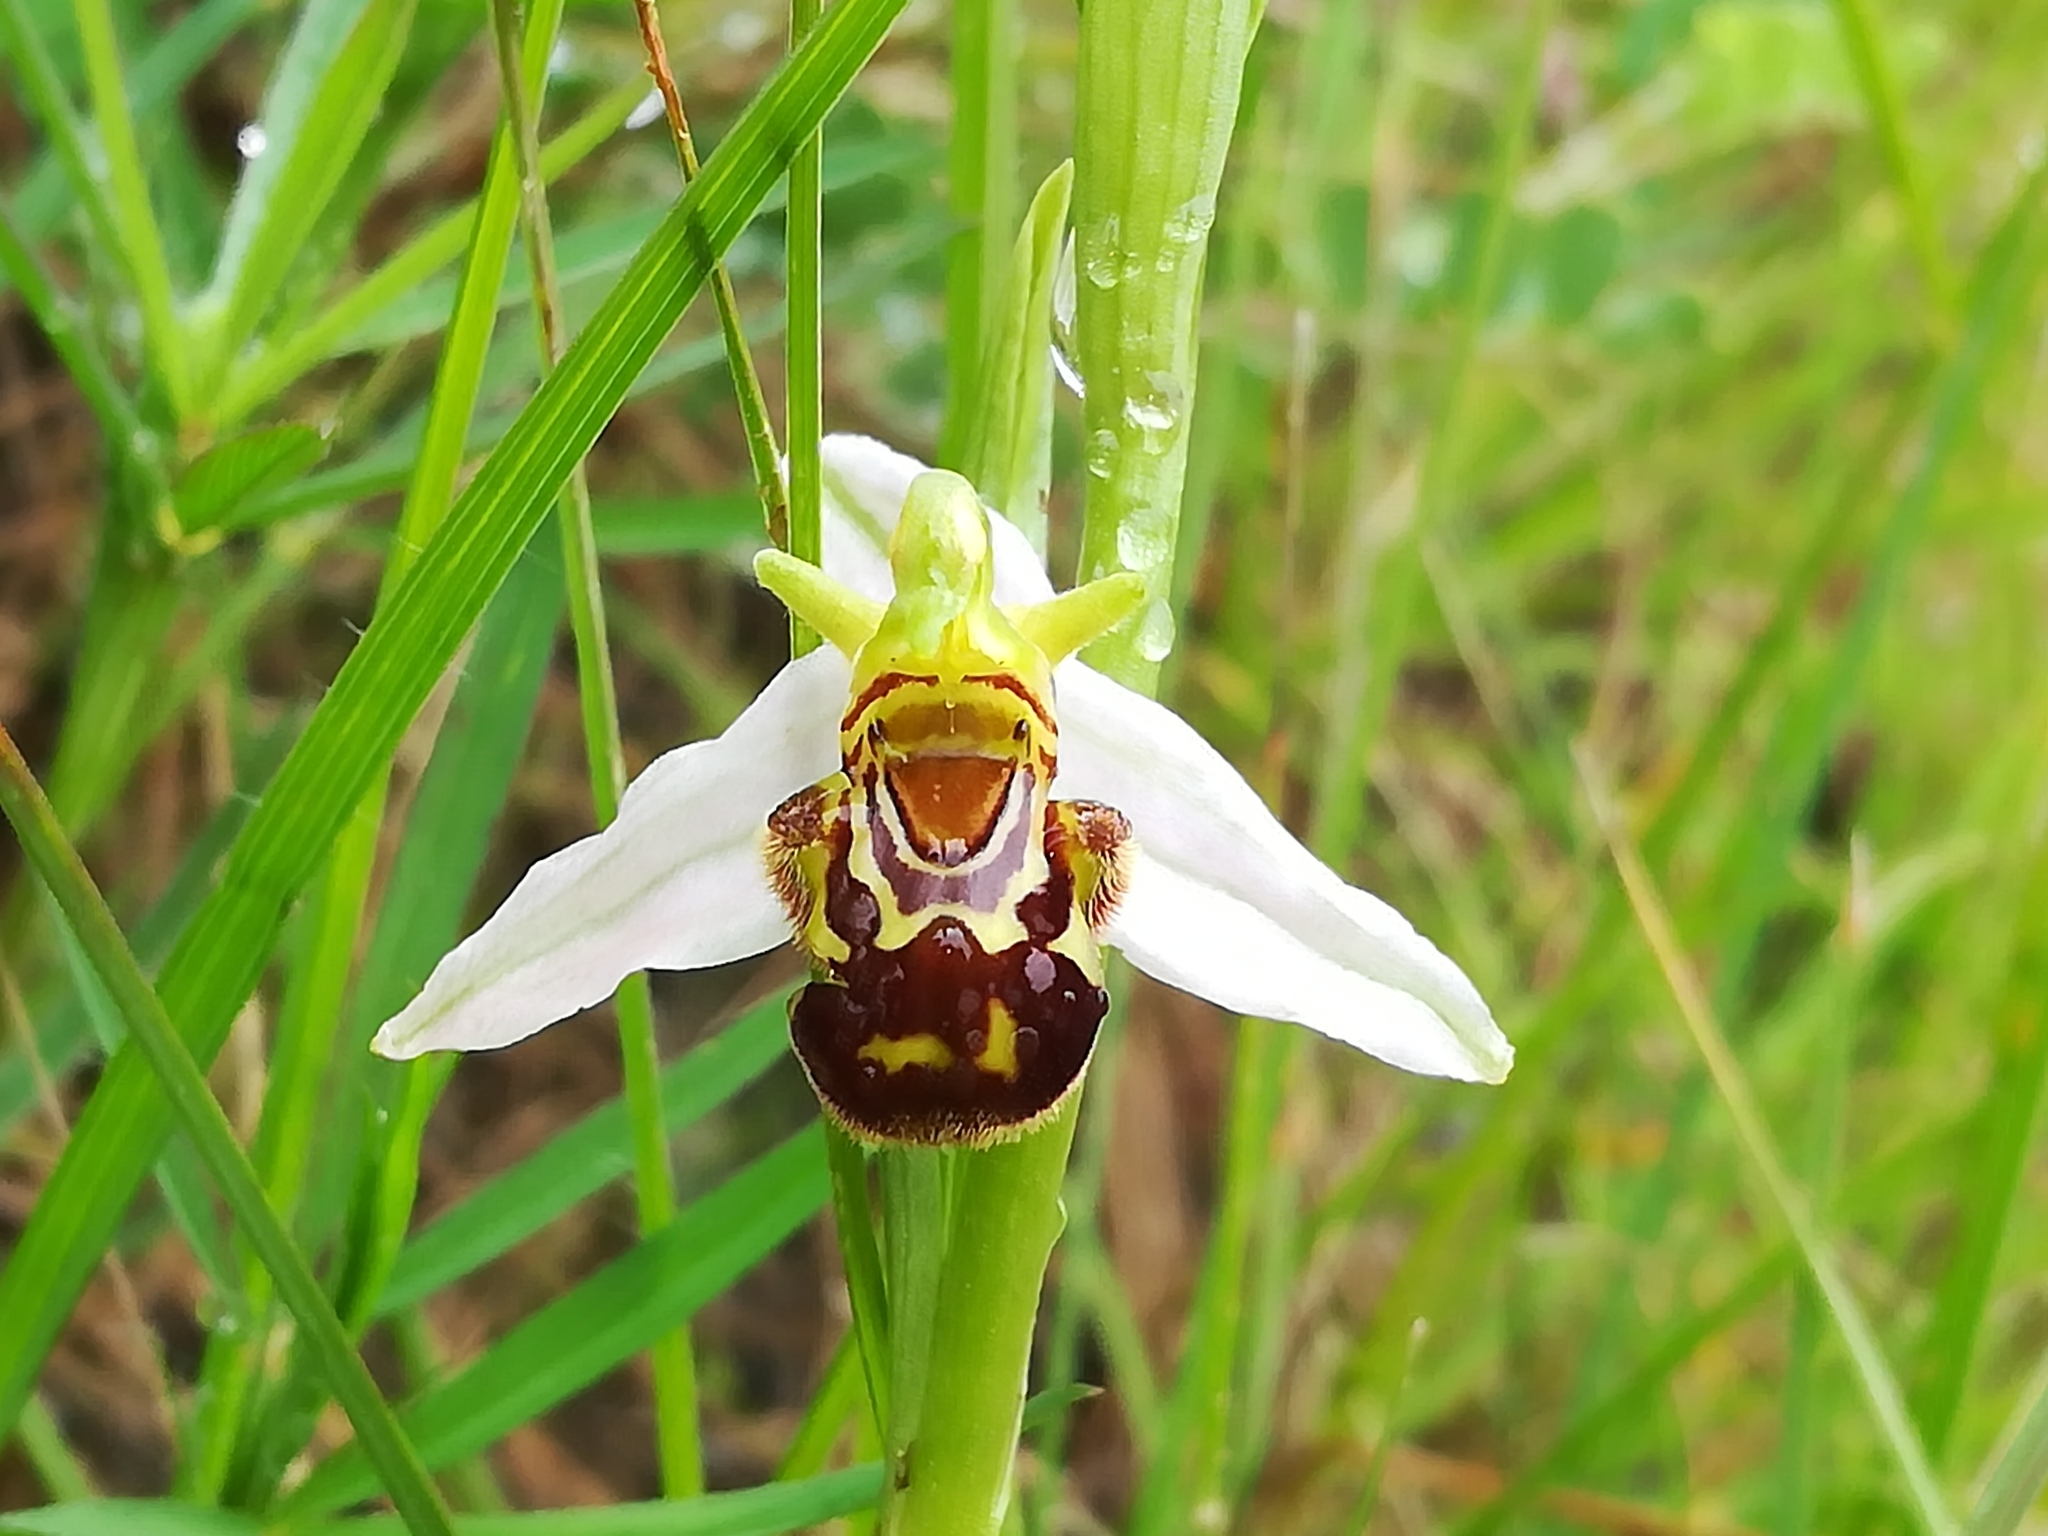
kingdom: Plantae
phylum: Tracheophyta
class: Liliopsida
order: Asparagales
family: Orchidaceae
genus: Ophrys
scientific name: Ophrys apifera
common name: Bee orchid
